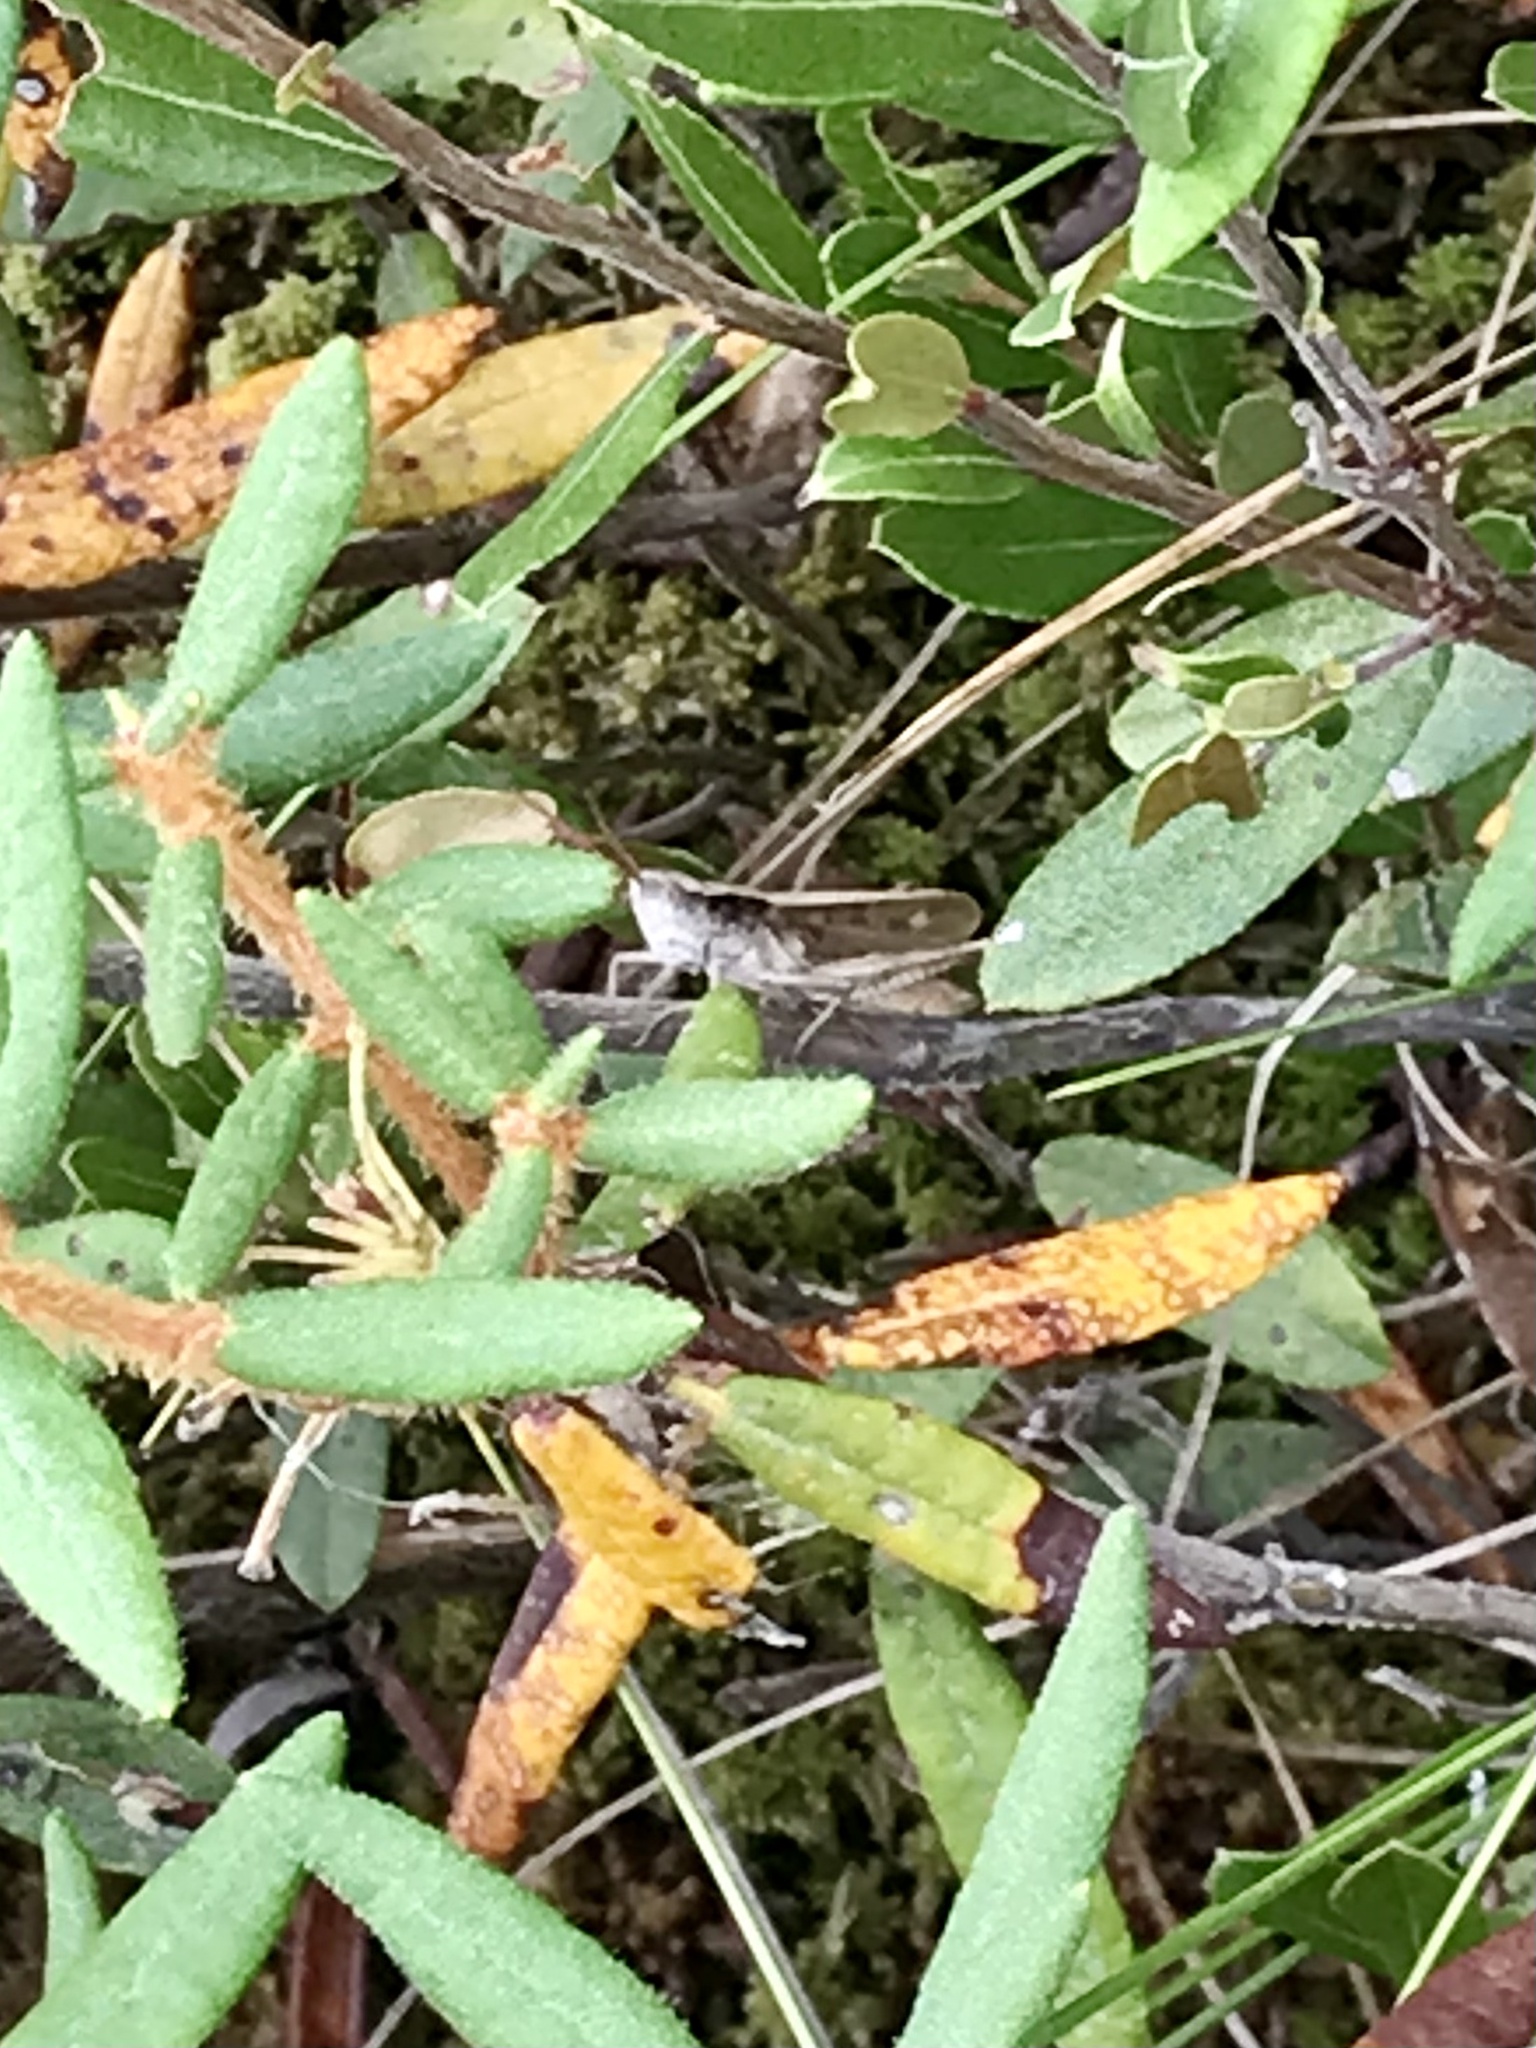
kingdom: Animalia
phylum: Arthropoda
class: Insecta
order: Orthoptera
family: Acrididae
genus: Chloealtis
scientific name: Chloealtis abdominalis
